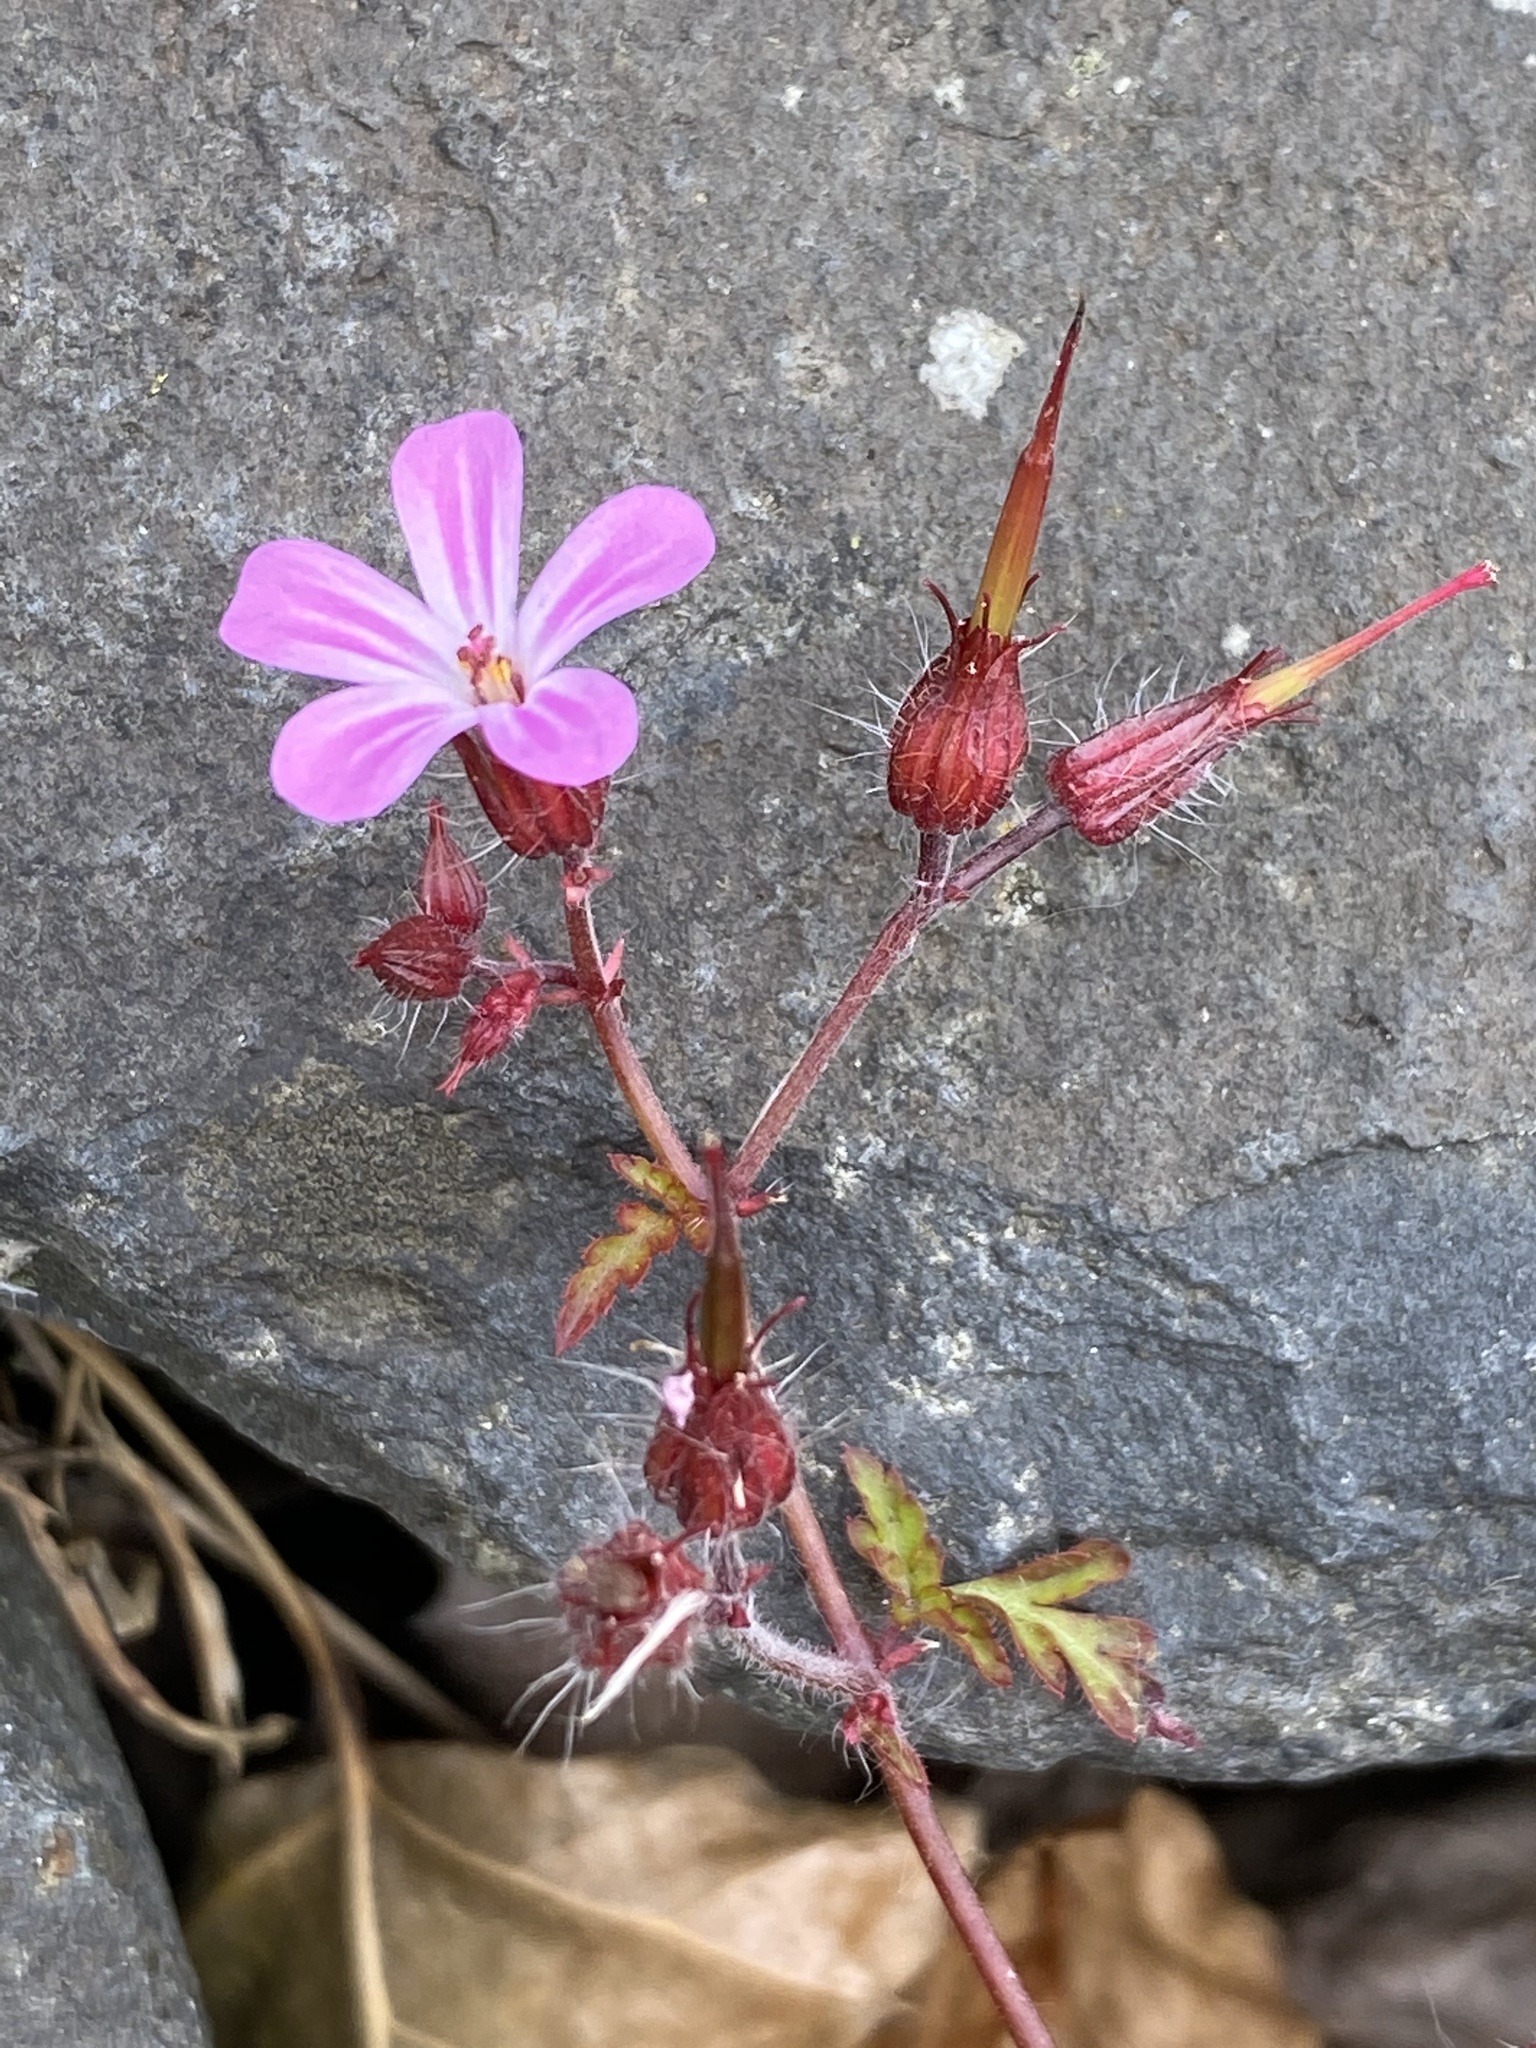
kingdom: Plantae
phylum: Tracheophyta
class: Magnoliopsida
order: Geraniales
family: Geraniaceae
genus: Geranium
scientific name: Geranium robertianum
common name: Herb-robert
